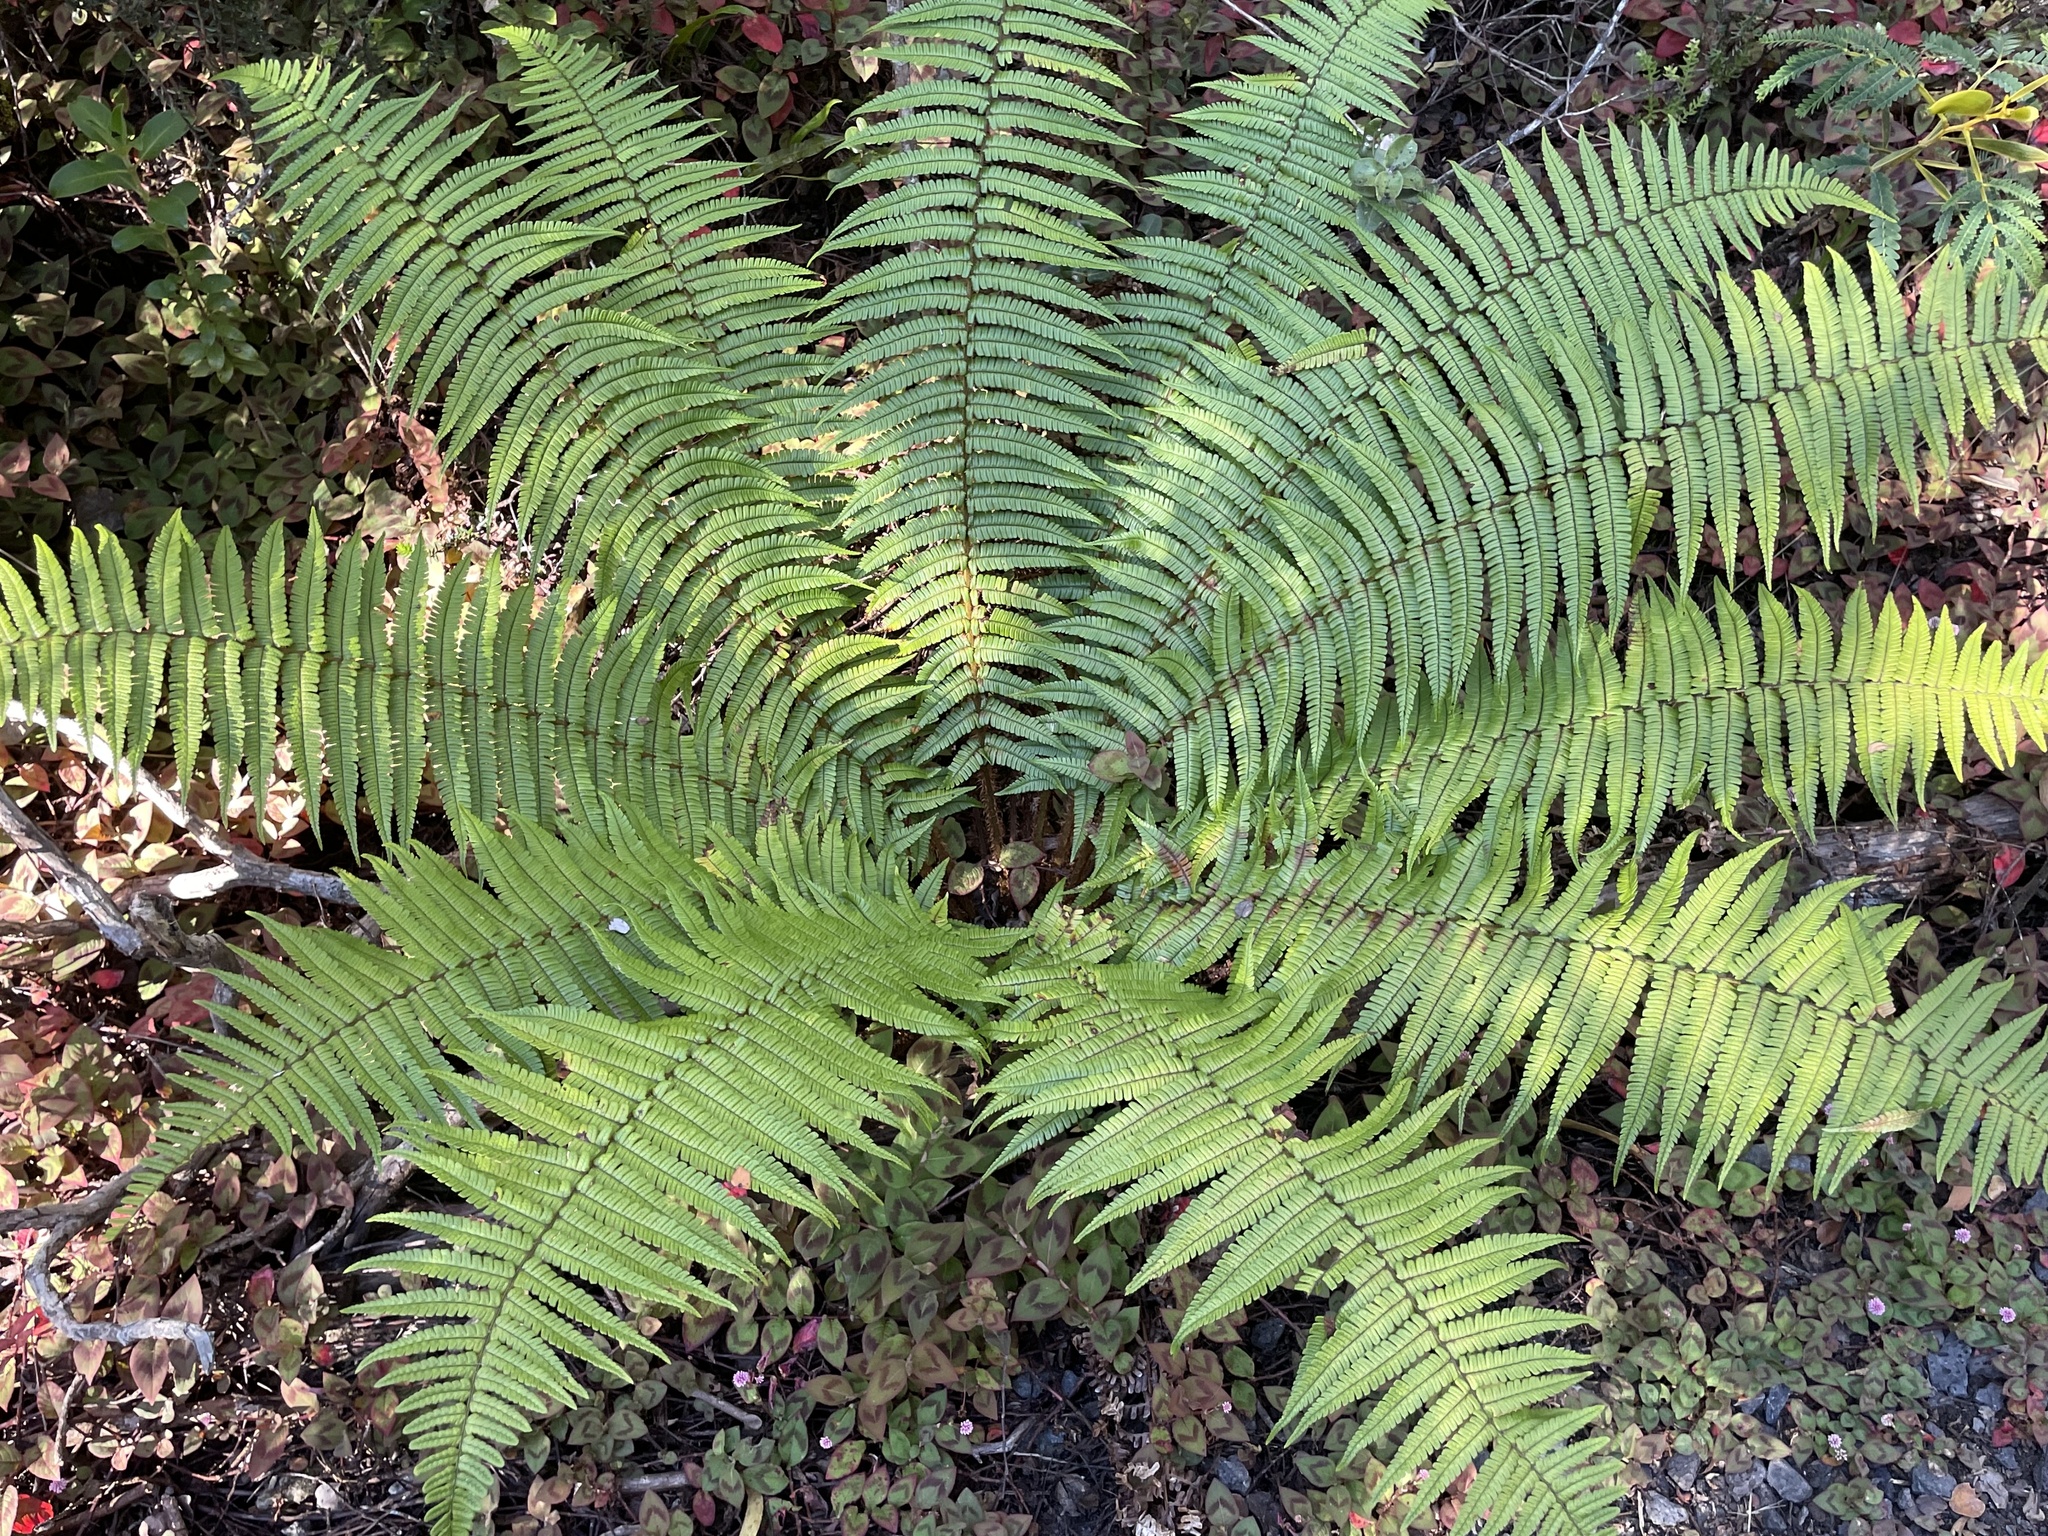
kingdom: Plantae
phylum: Tracheophyta
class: Polypodiopsida
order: Polypodiales
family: Dryopteridaceae
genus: Dryopteris
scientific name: Dryopteris wallichiana
